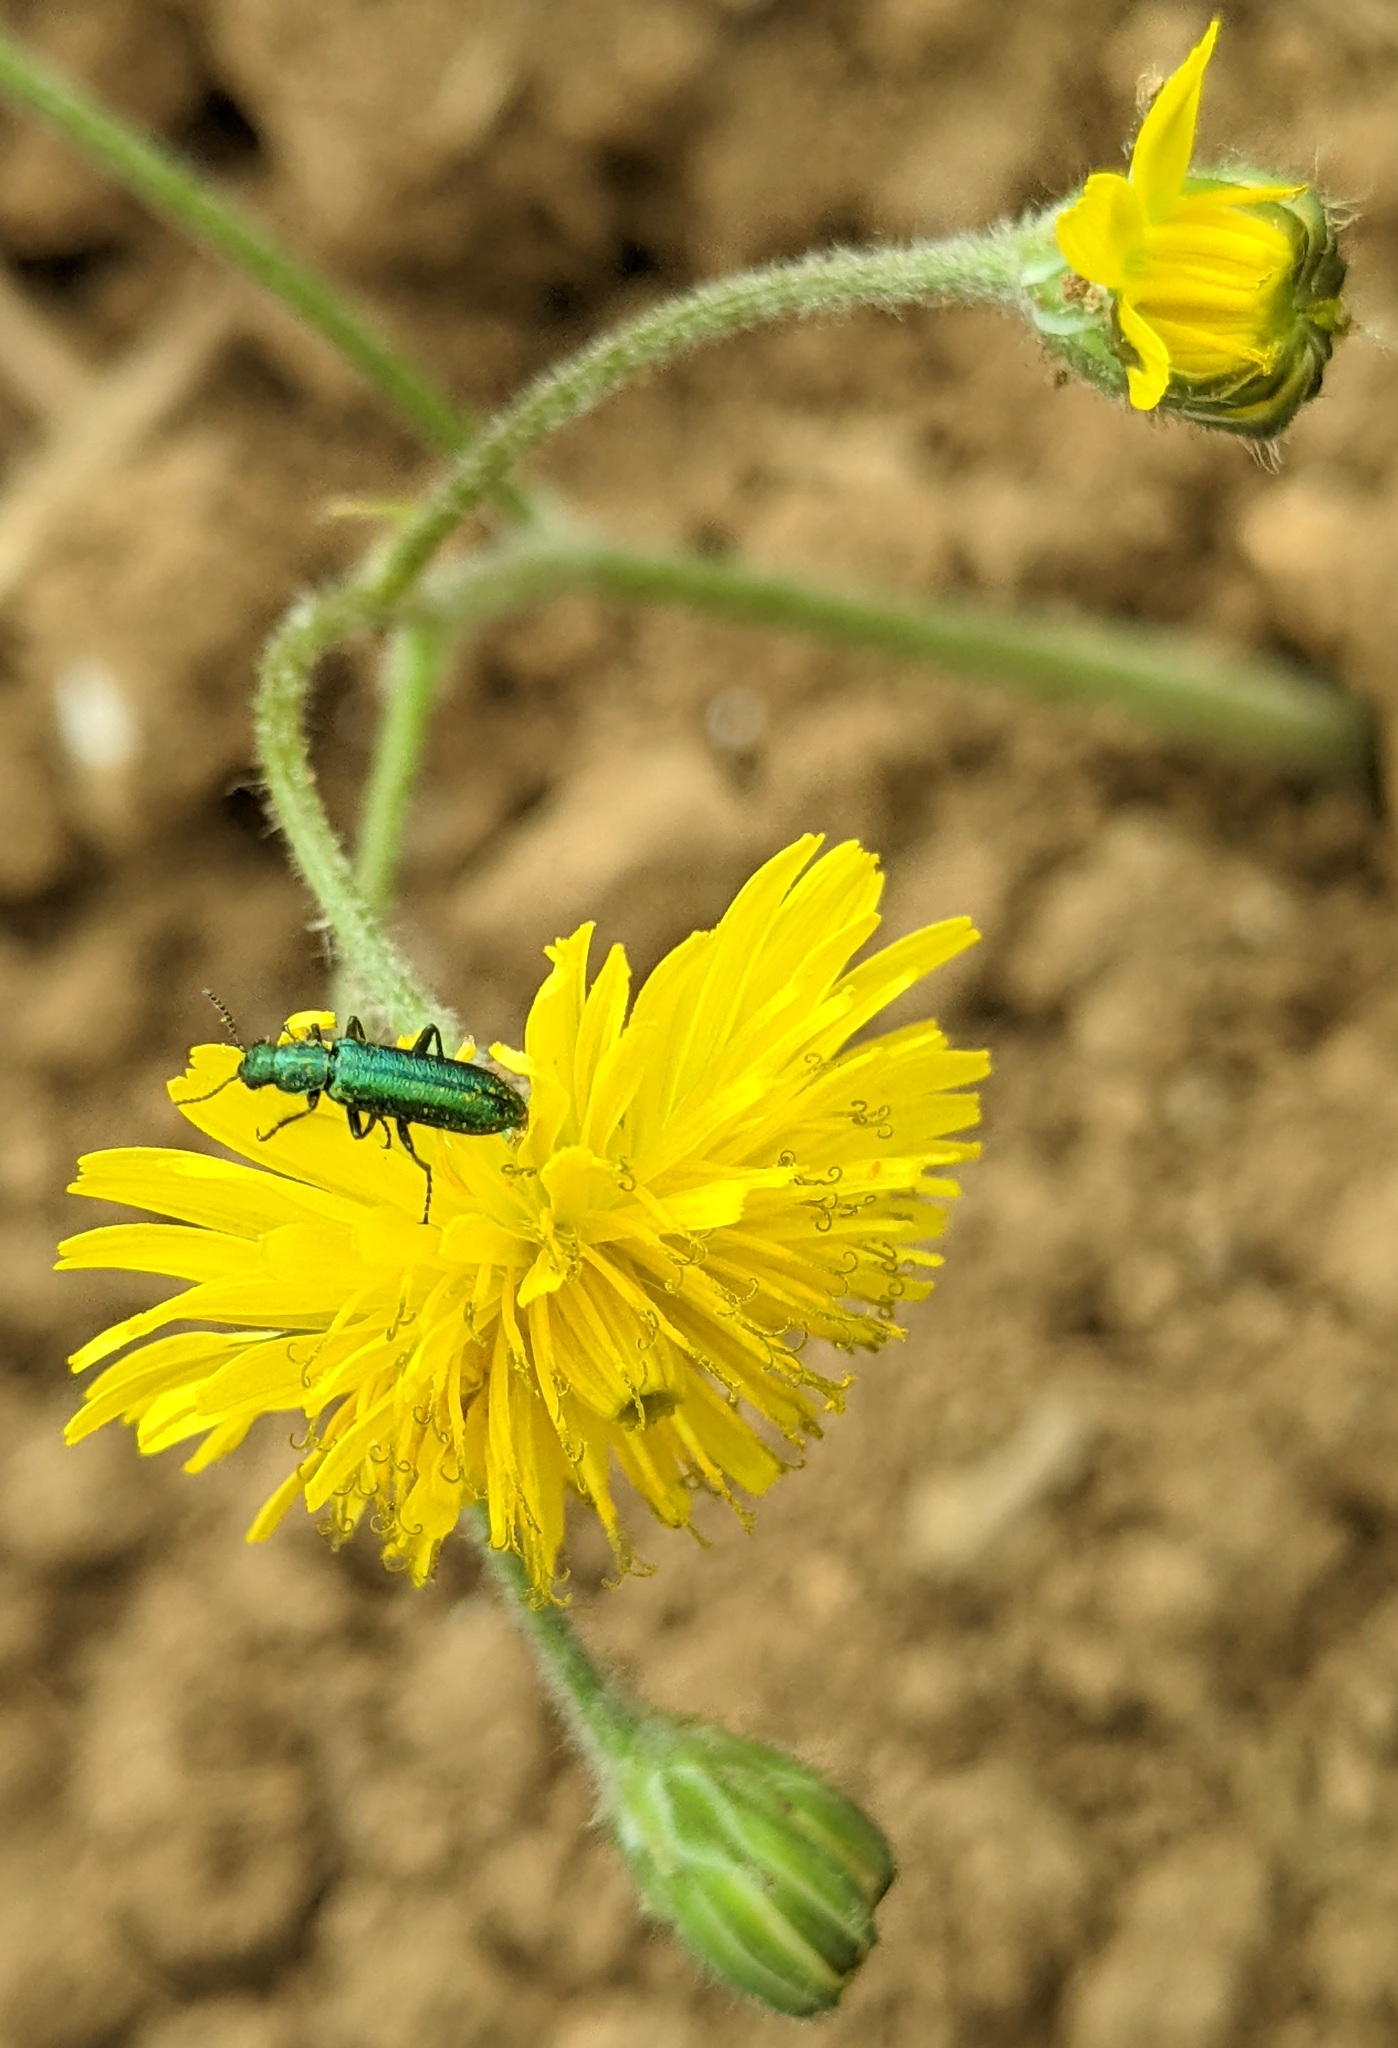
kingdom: Animalia
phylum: Arthropoda
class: Insecta
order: Coleoptera
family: Dasytidae
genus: Psilothrix
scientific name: Psilothrix viridicoerulea
